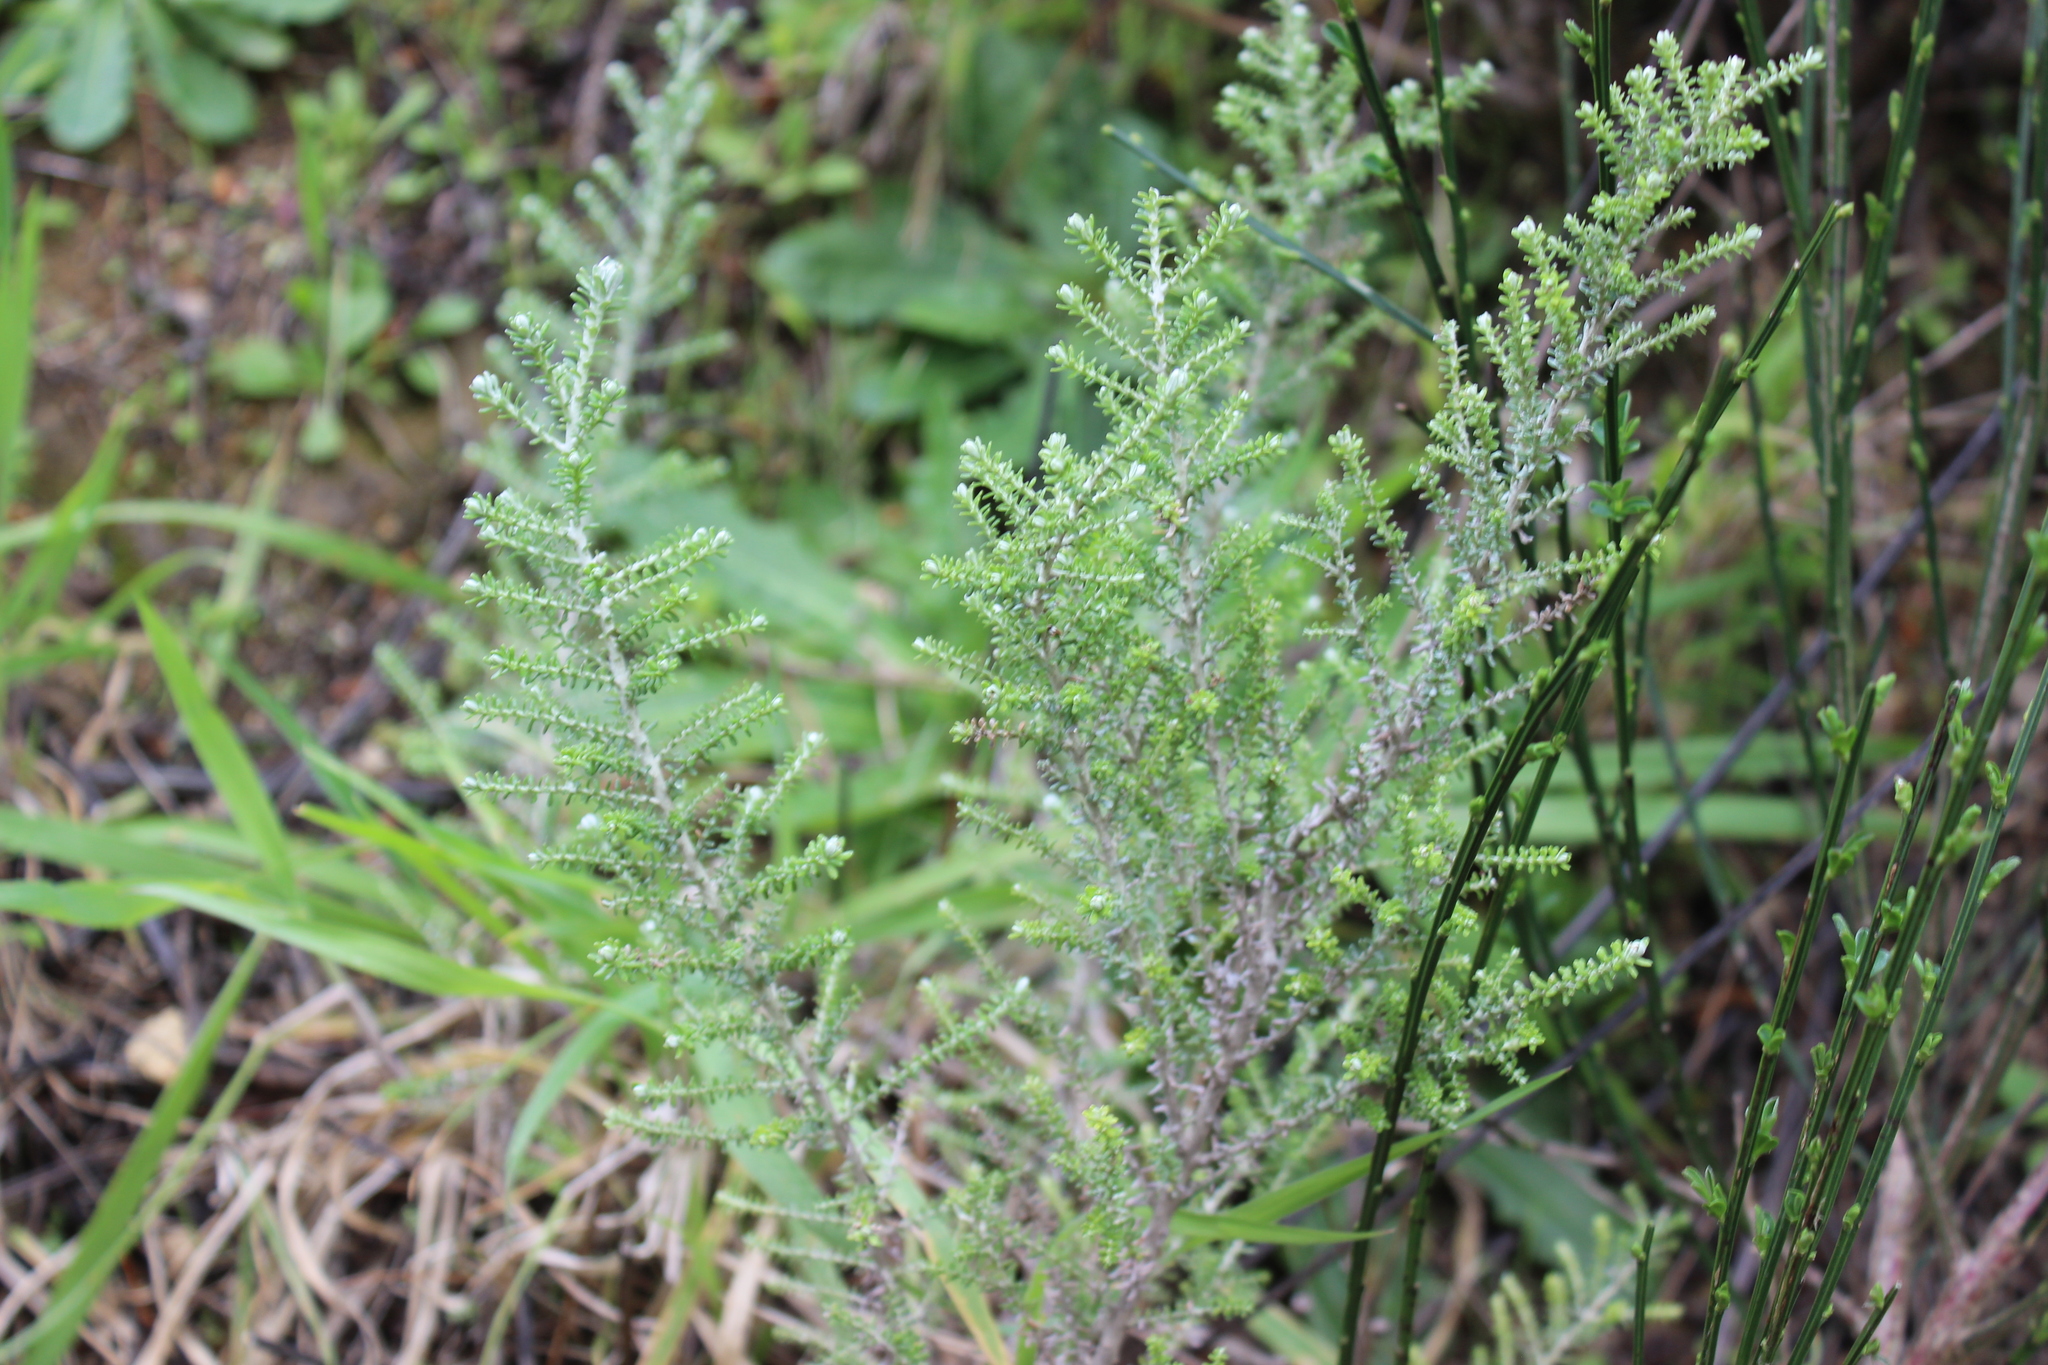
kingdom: Plantae
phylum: Tracheophyta
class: Magnoliopsida
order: Asterales
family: Asteraceae
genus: Ozothamnus
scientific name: Ozothamnus leptophyllus
